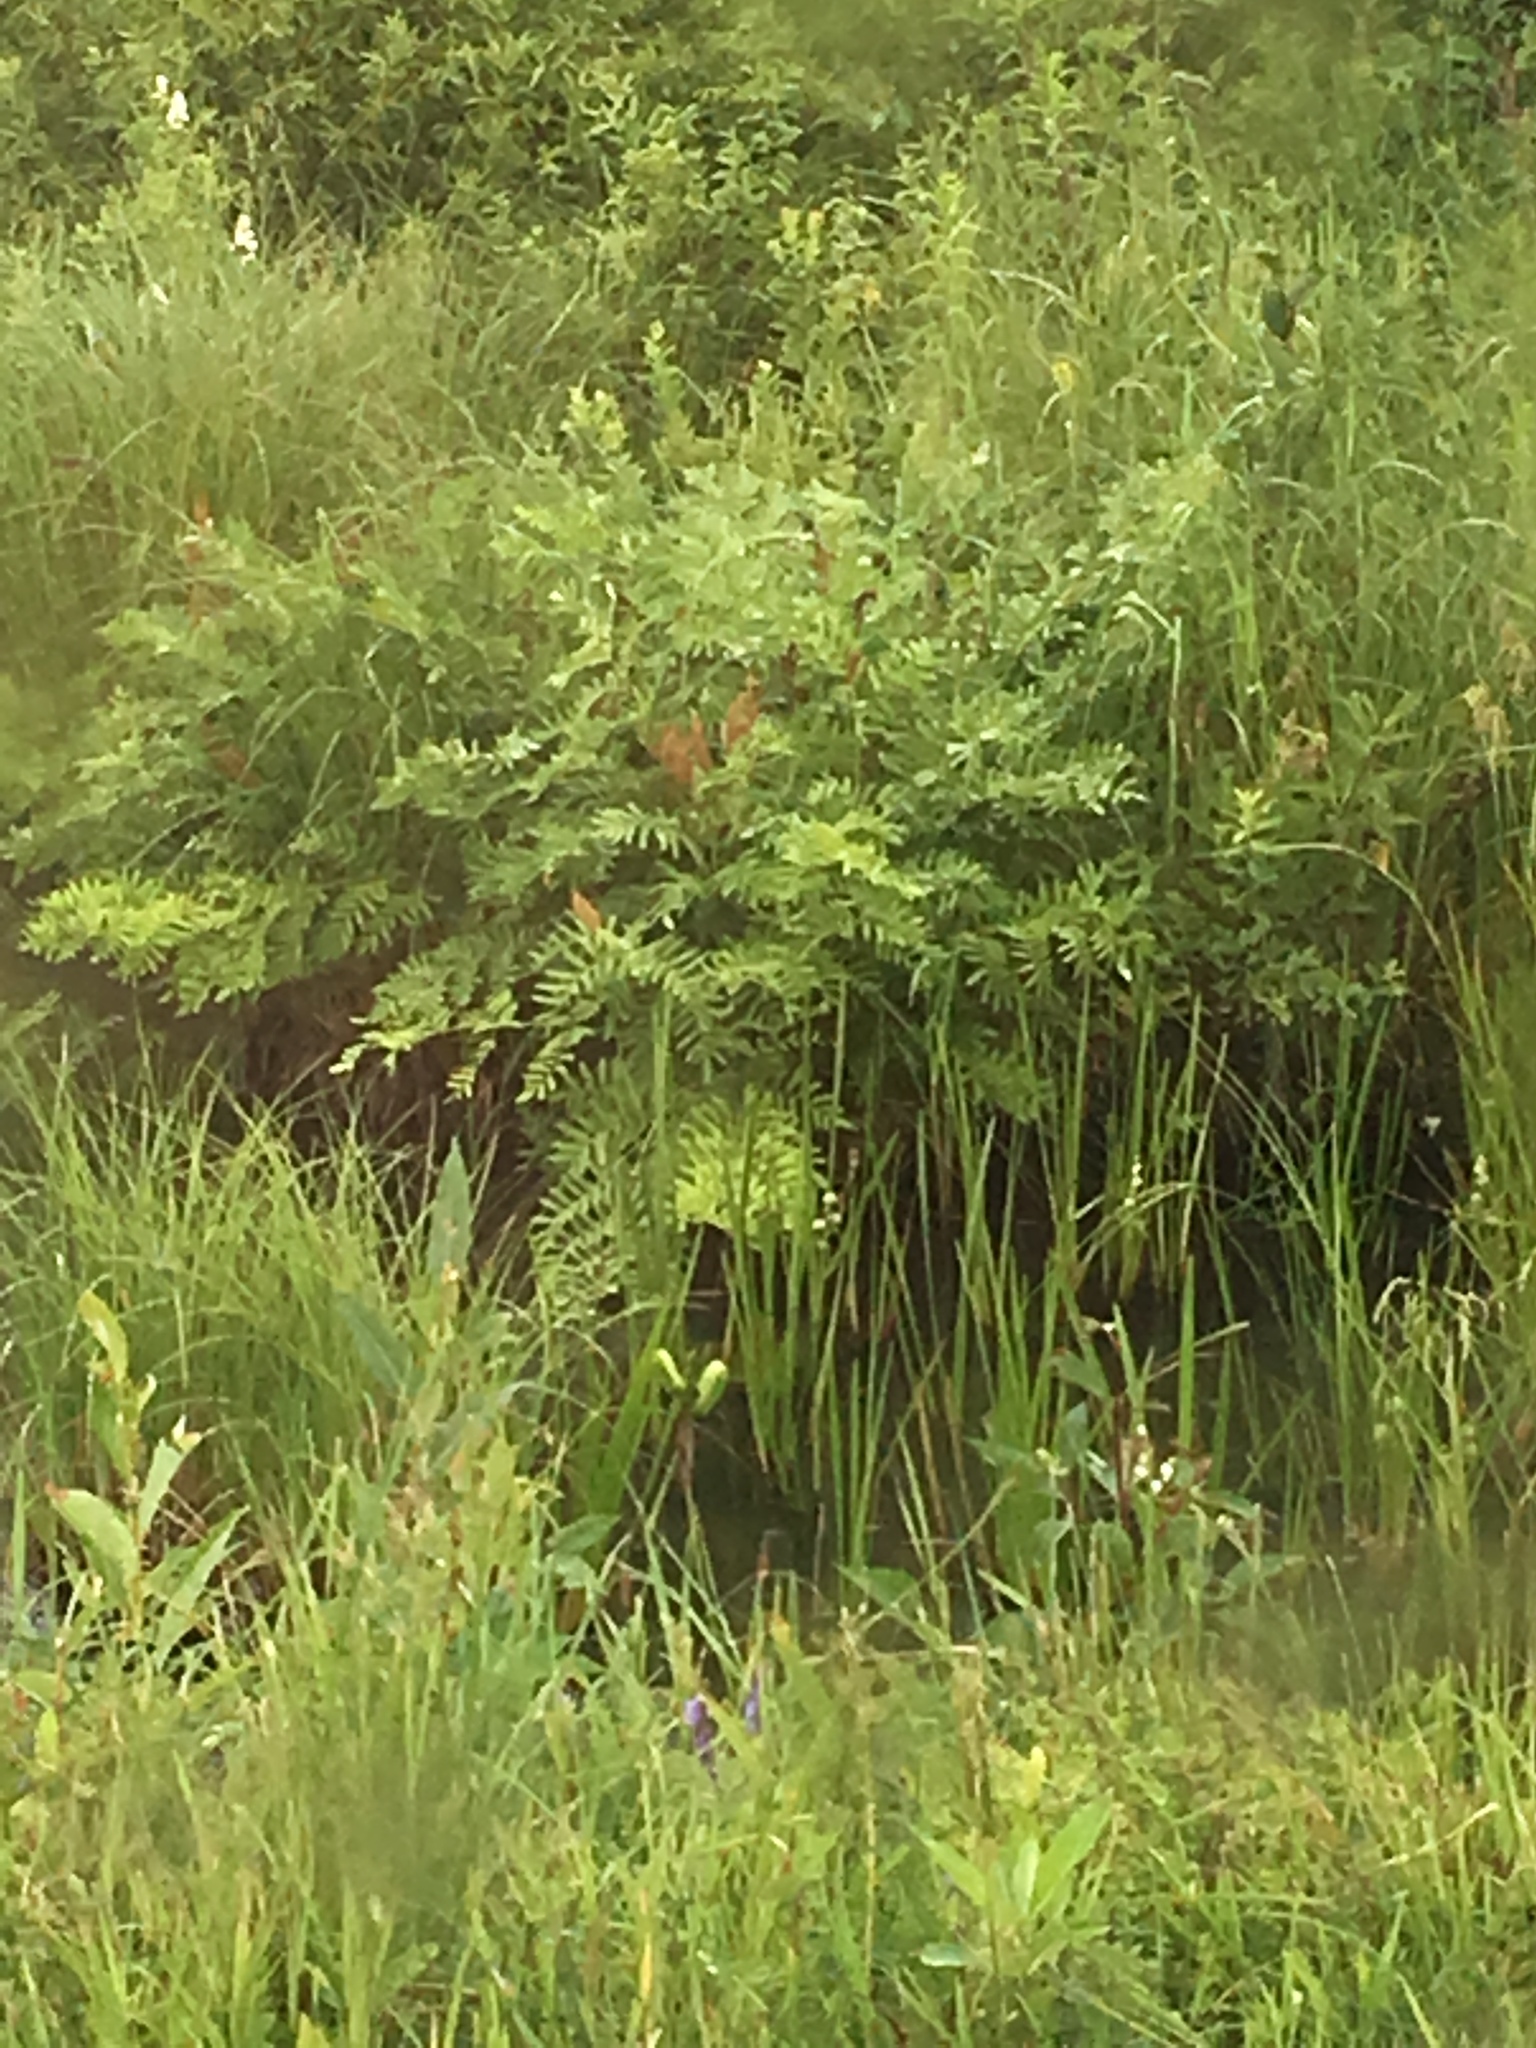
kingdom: Plantae
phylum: Tracheophyta
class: Polypodiopsida
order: Osmundales
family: Osmundaceae
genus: Osmunda
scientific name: Osmunda spectabilis
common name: American royal fern
